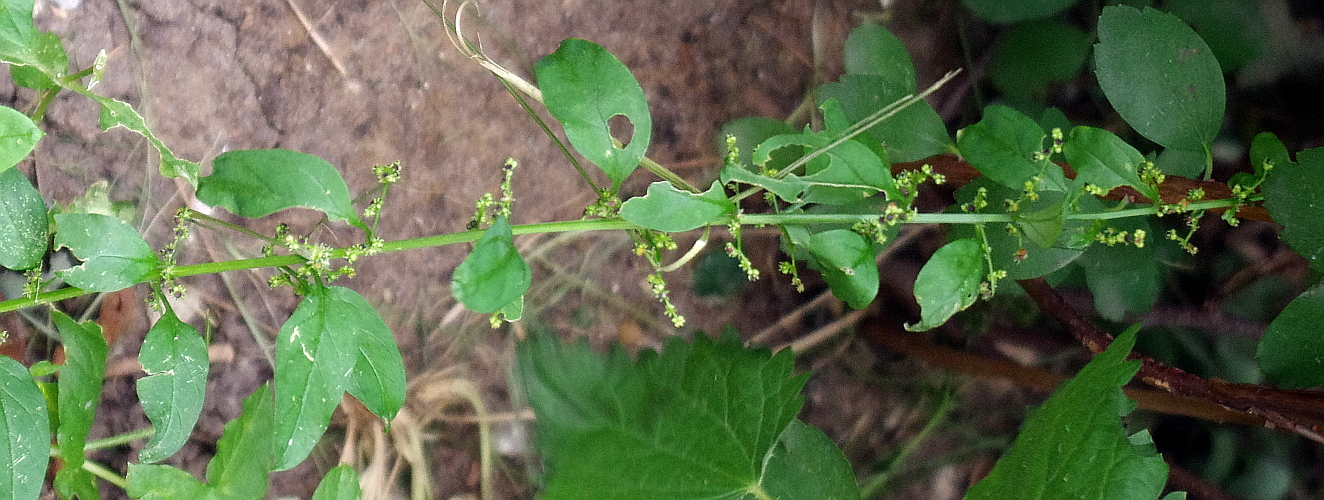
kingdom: Plantae
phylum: Tracheophyta
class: Magnoliopsida
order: Caryophyllales
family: Amaranthaceae
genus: Lipandra
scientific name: Lipandra polysperma
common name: Many-seed goosefoot
